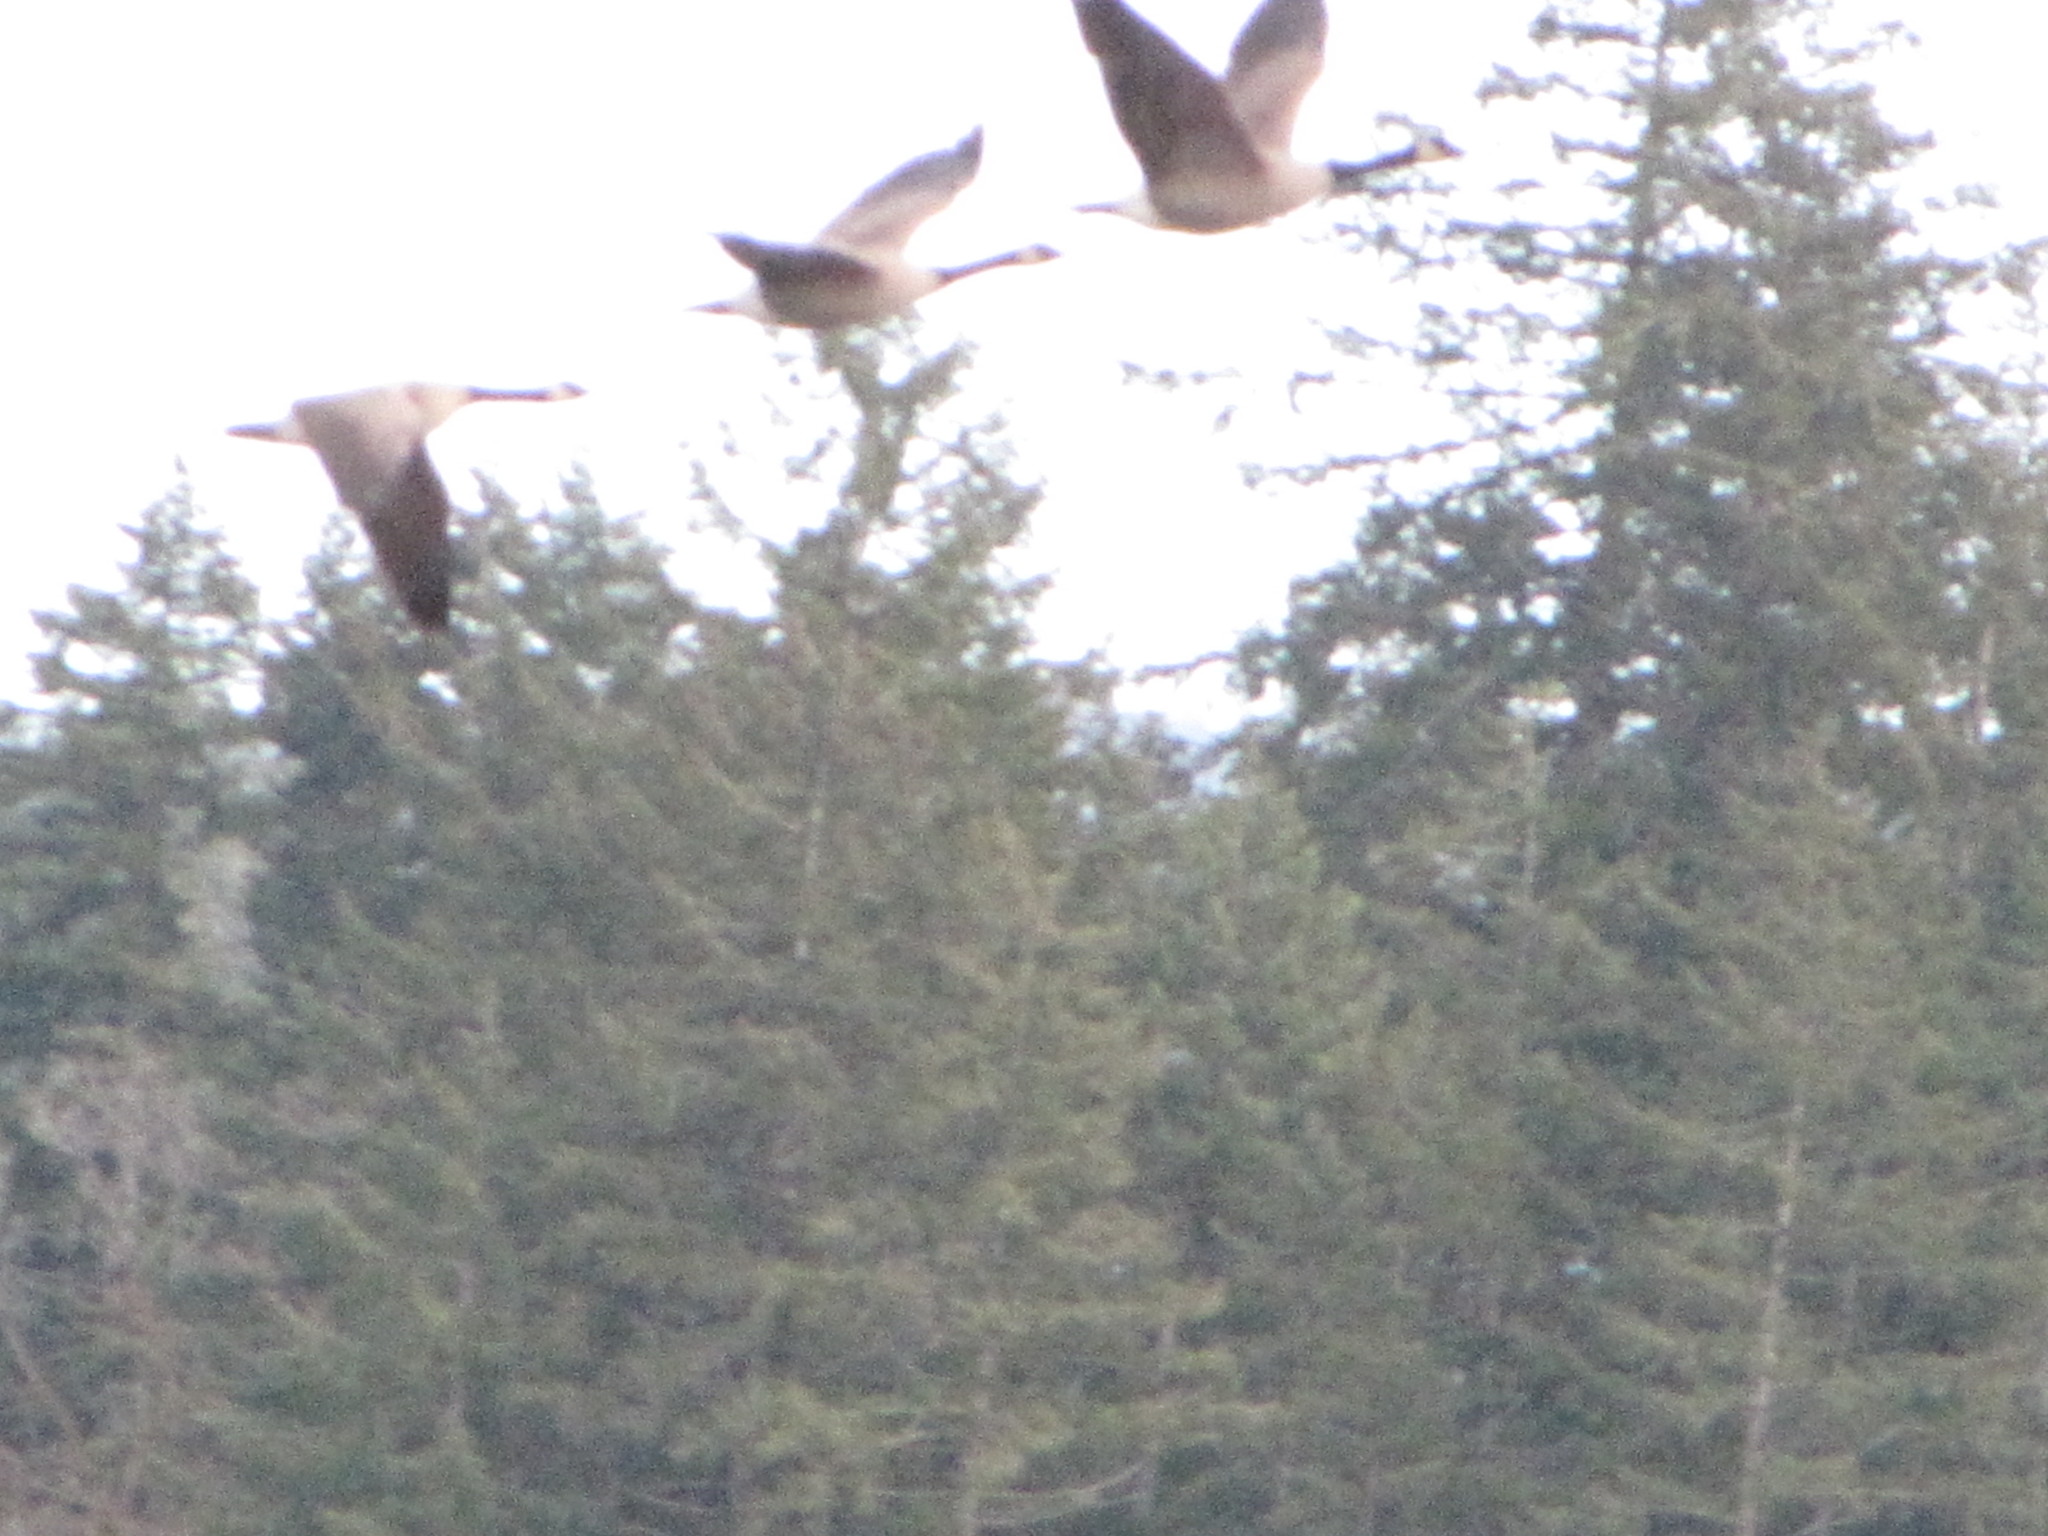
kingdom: Animalia
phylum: Chordata
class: Aves
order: Anseriformes
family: Anatidae
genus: Branta
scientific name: Branta canadensis
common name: Canada goose
